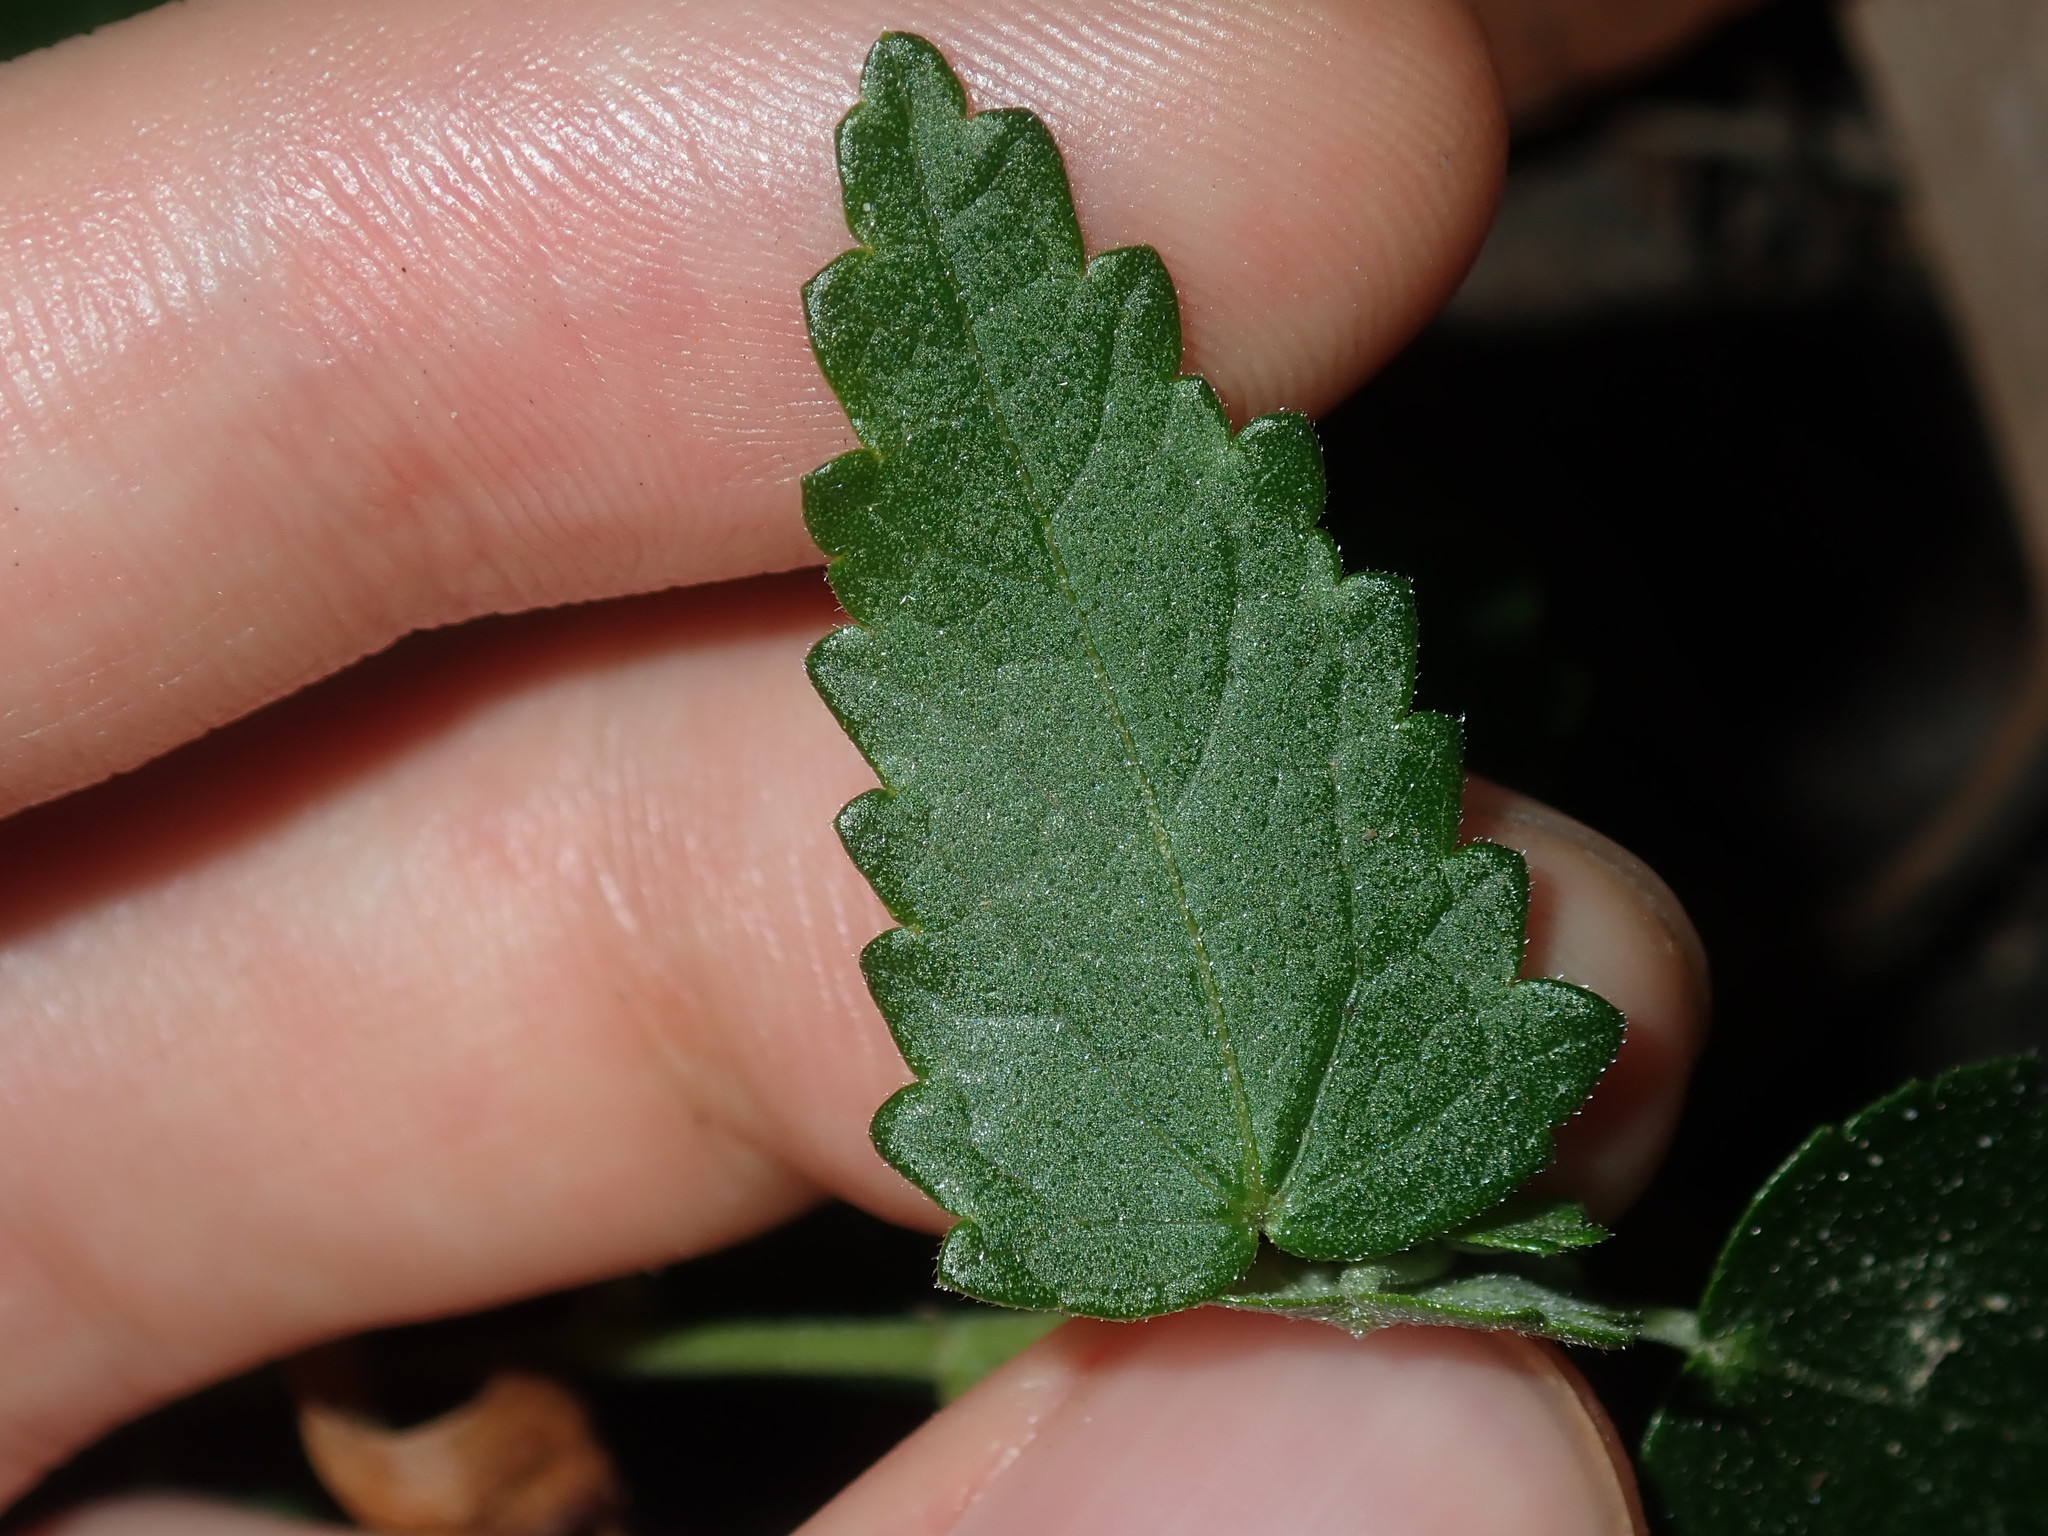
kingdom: Plantae
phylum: Tracheophyta
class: Magnoliopsida
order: Malvales
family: Malvaceae
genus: Pavonia
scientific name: Pavonia hastata
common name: Spearleaf swampmallow
